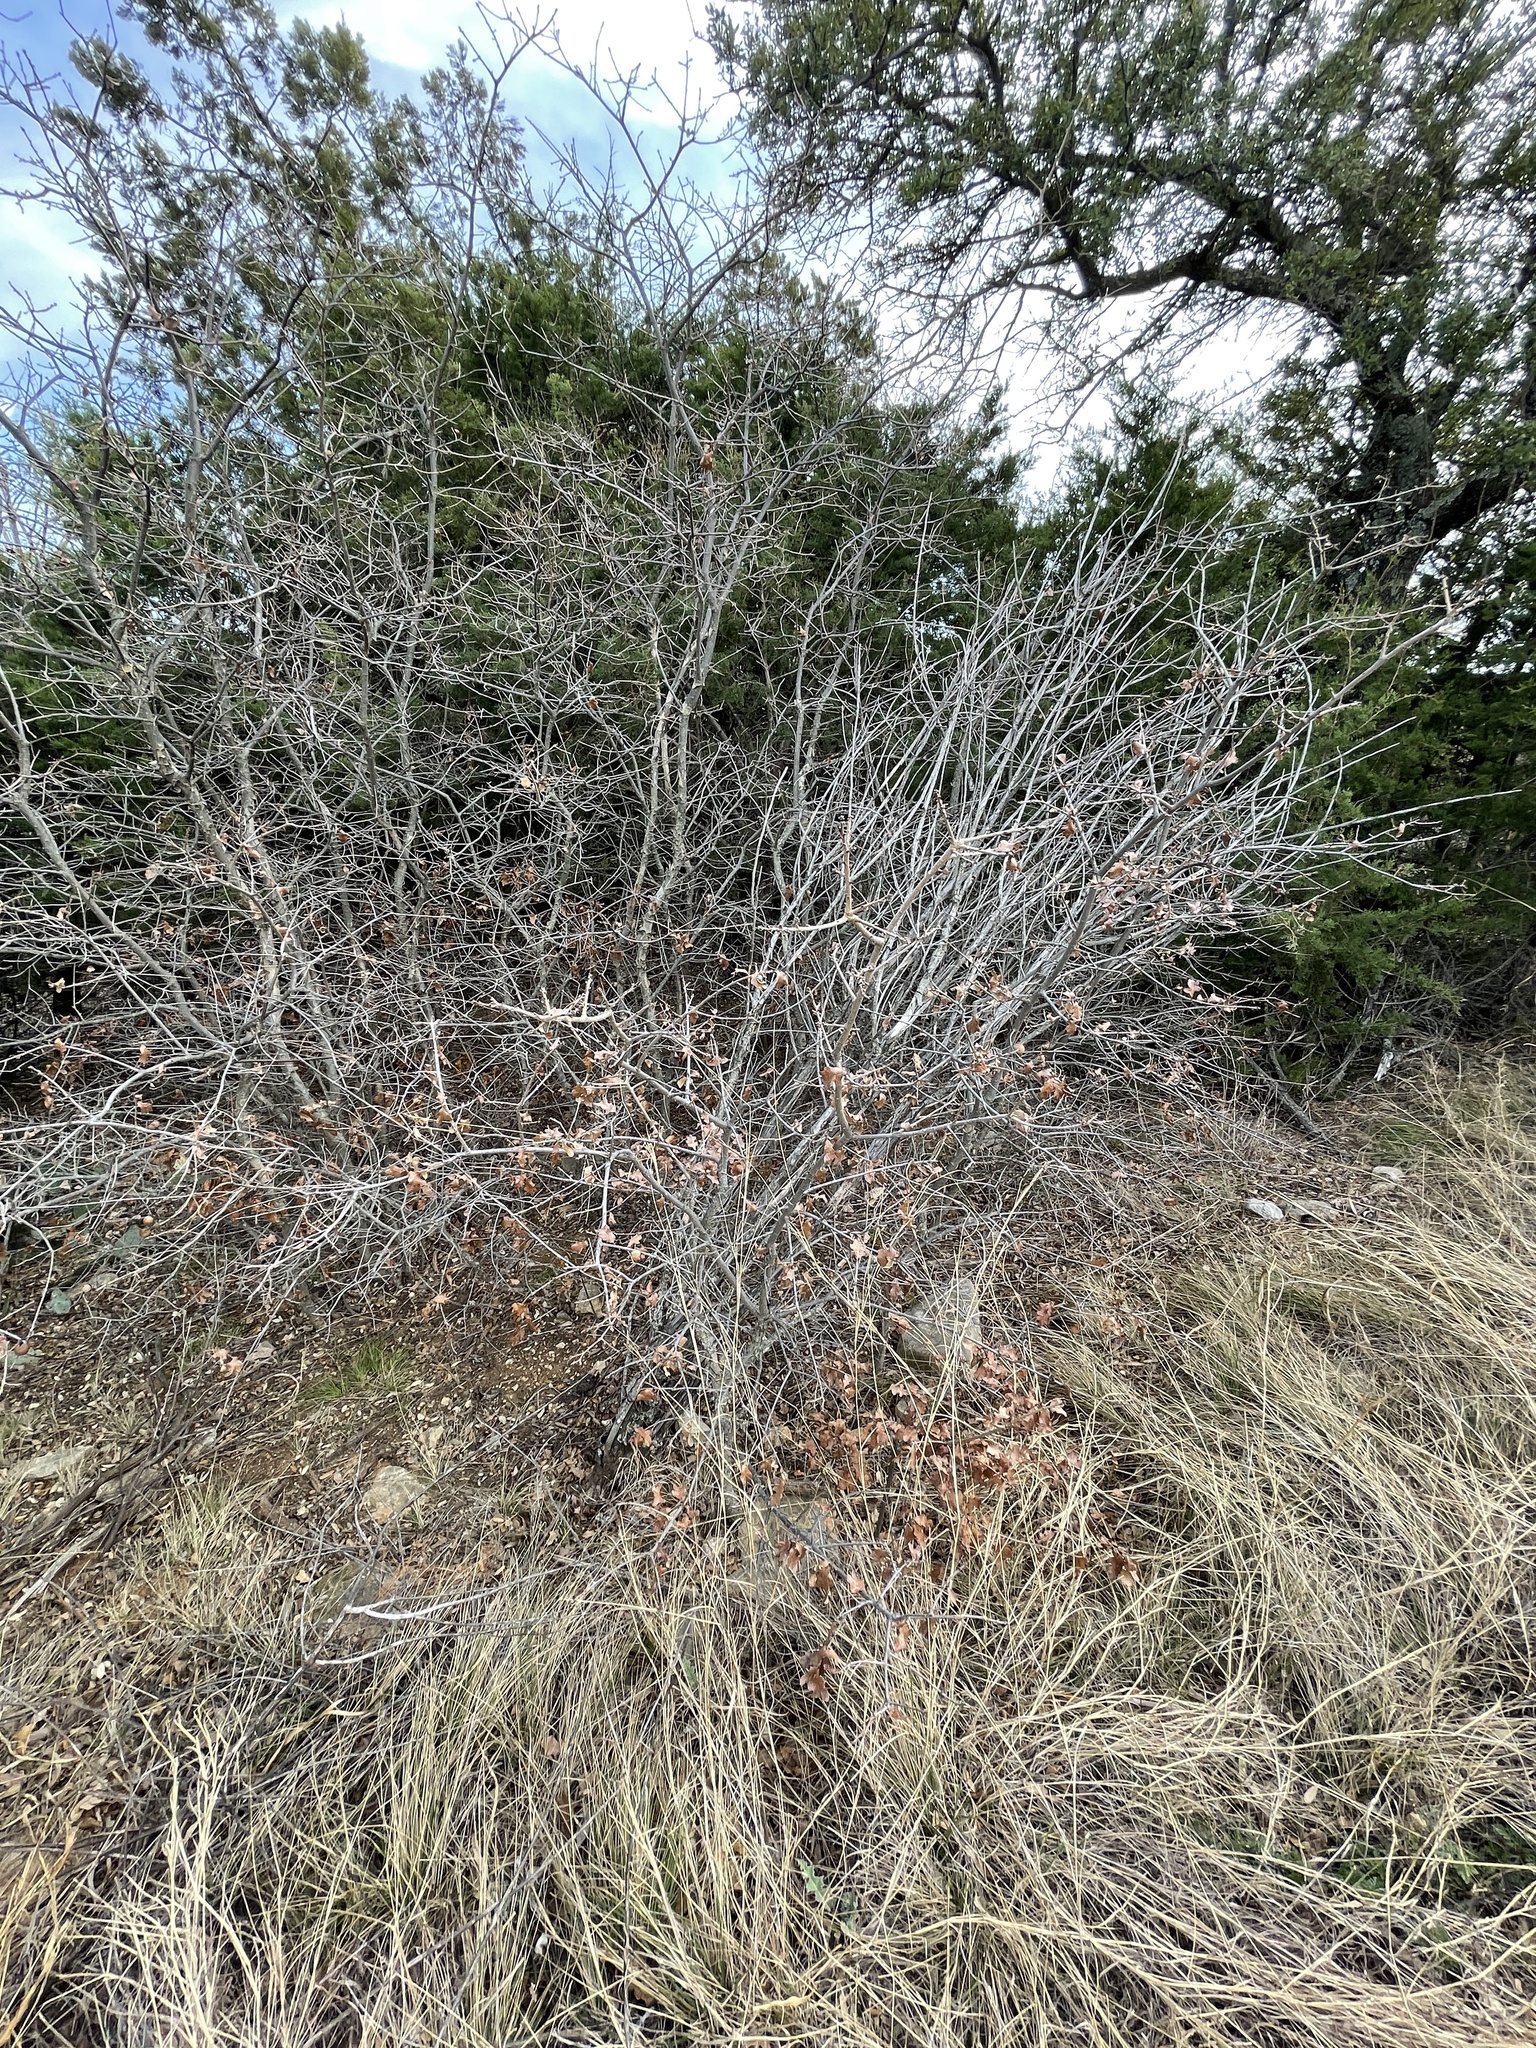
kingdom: Plantae
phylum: Tracheophyta
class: Magnoliopsida
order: Fagales
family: Fagaceae
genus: Quercus
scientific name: Quercus stellata
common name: Post oak
